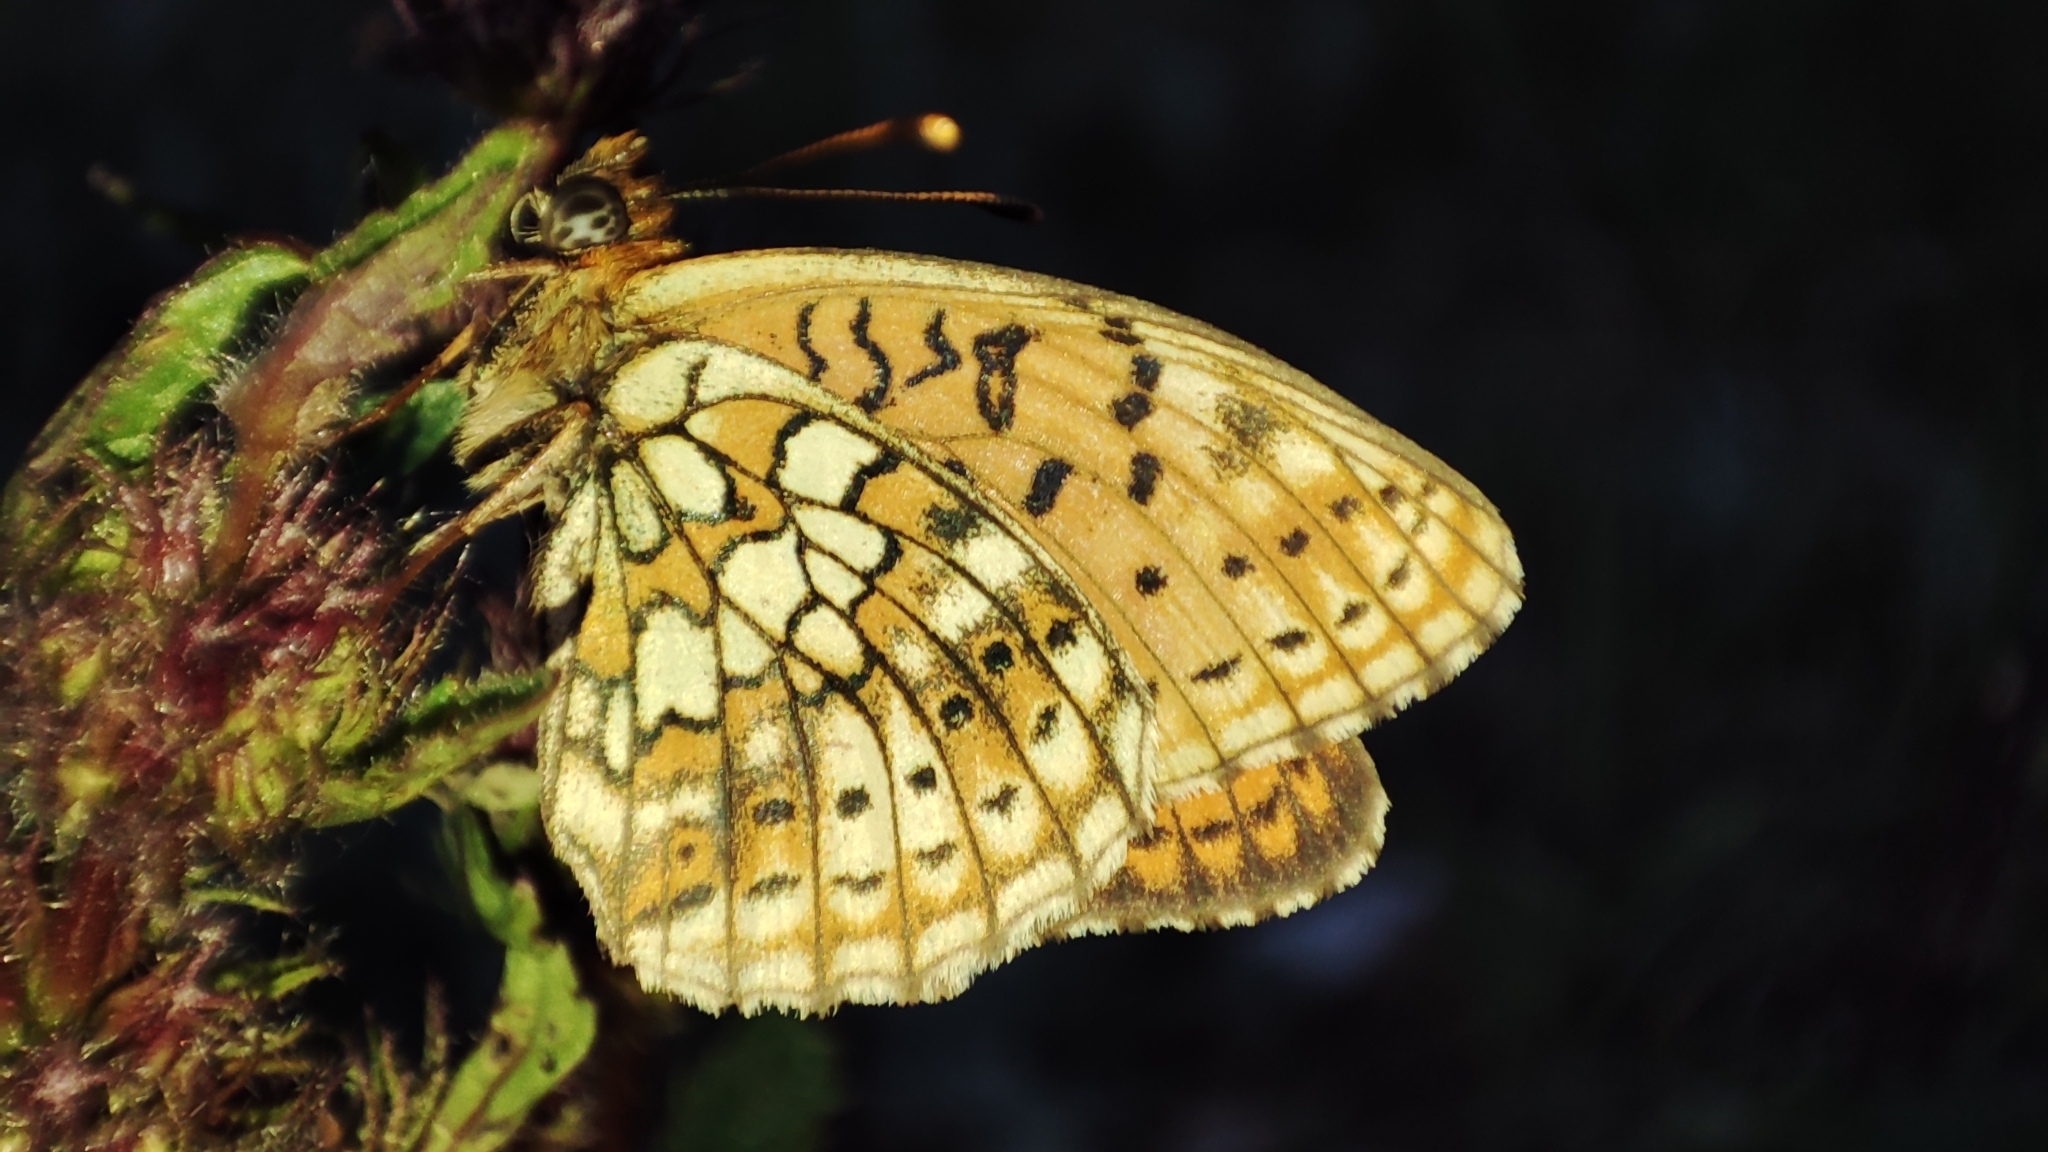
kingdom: Animalia
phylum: Arthropoda
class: Insecta
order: Lepidoptera
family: Nymphalidae
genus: Brenthis
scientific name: Brenthis hecate
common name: Twin-spot fritillary
